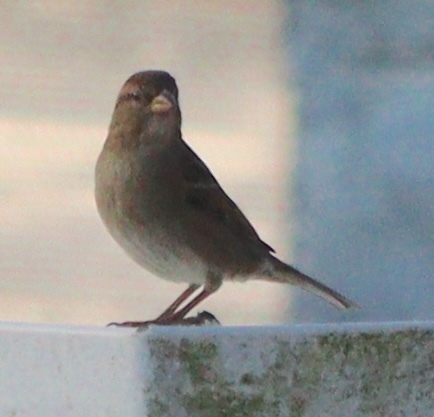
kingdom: Animalia
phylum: Chordata
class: Aves
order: Passeriformes
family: Passeridae
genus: Passer
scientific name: Passer domesticus
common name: House sparrow
